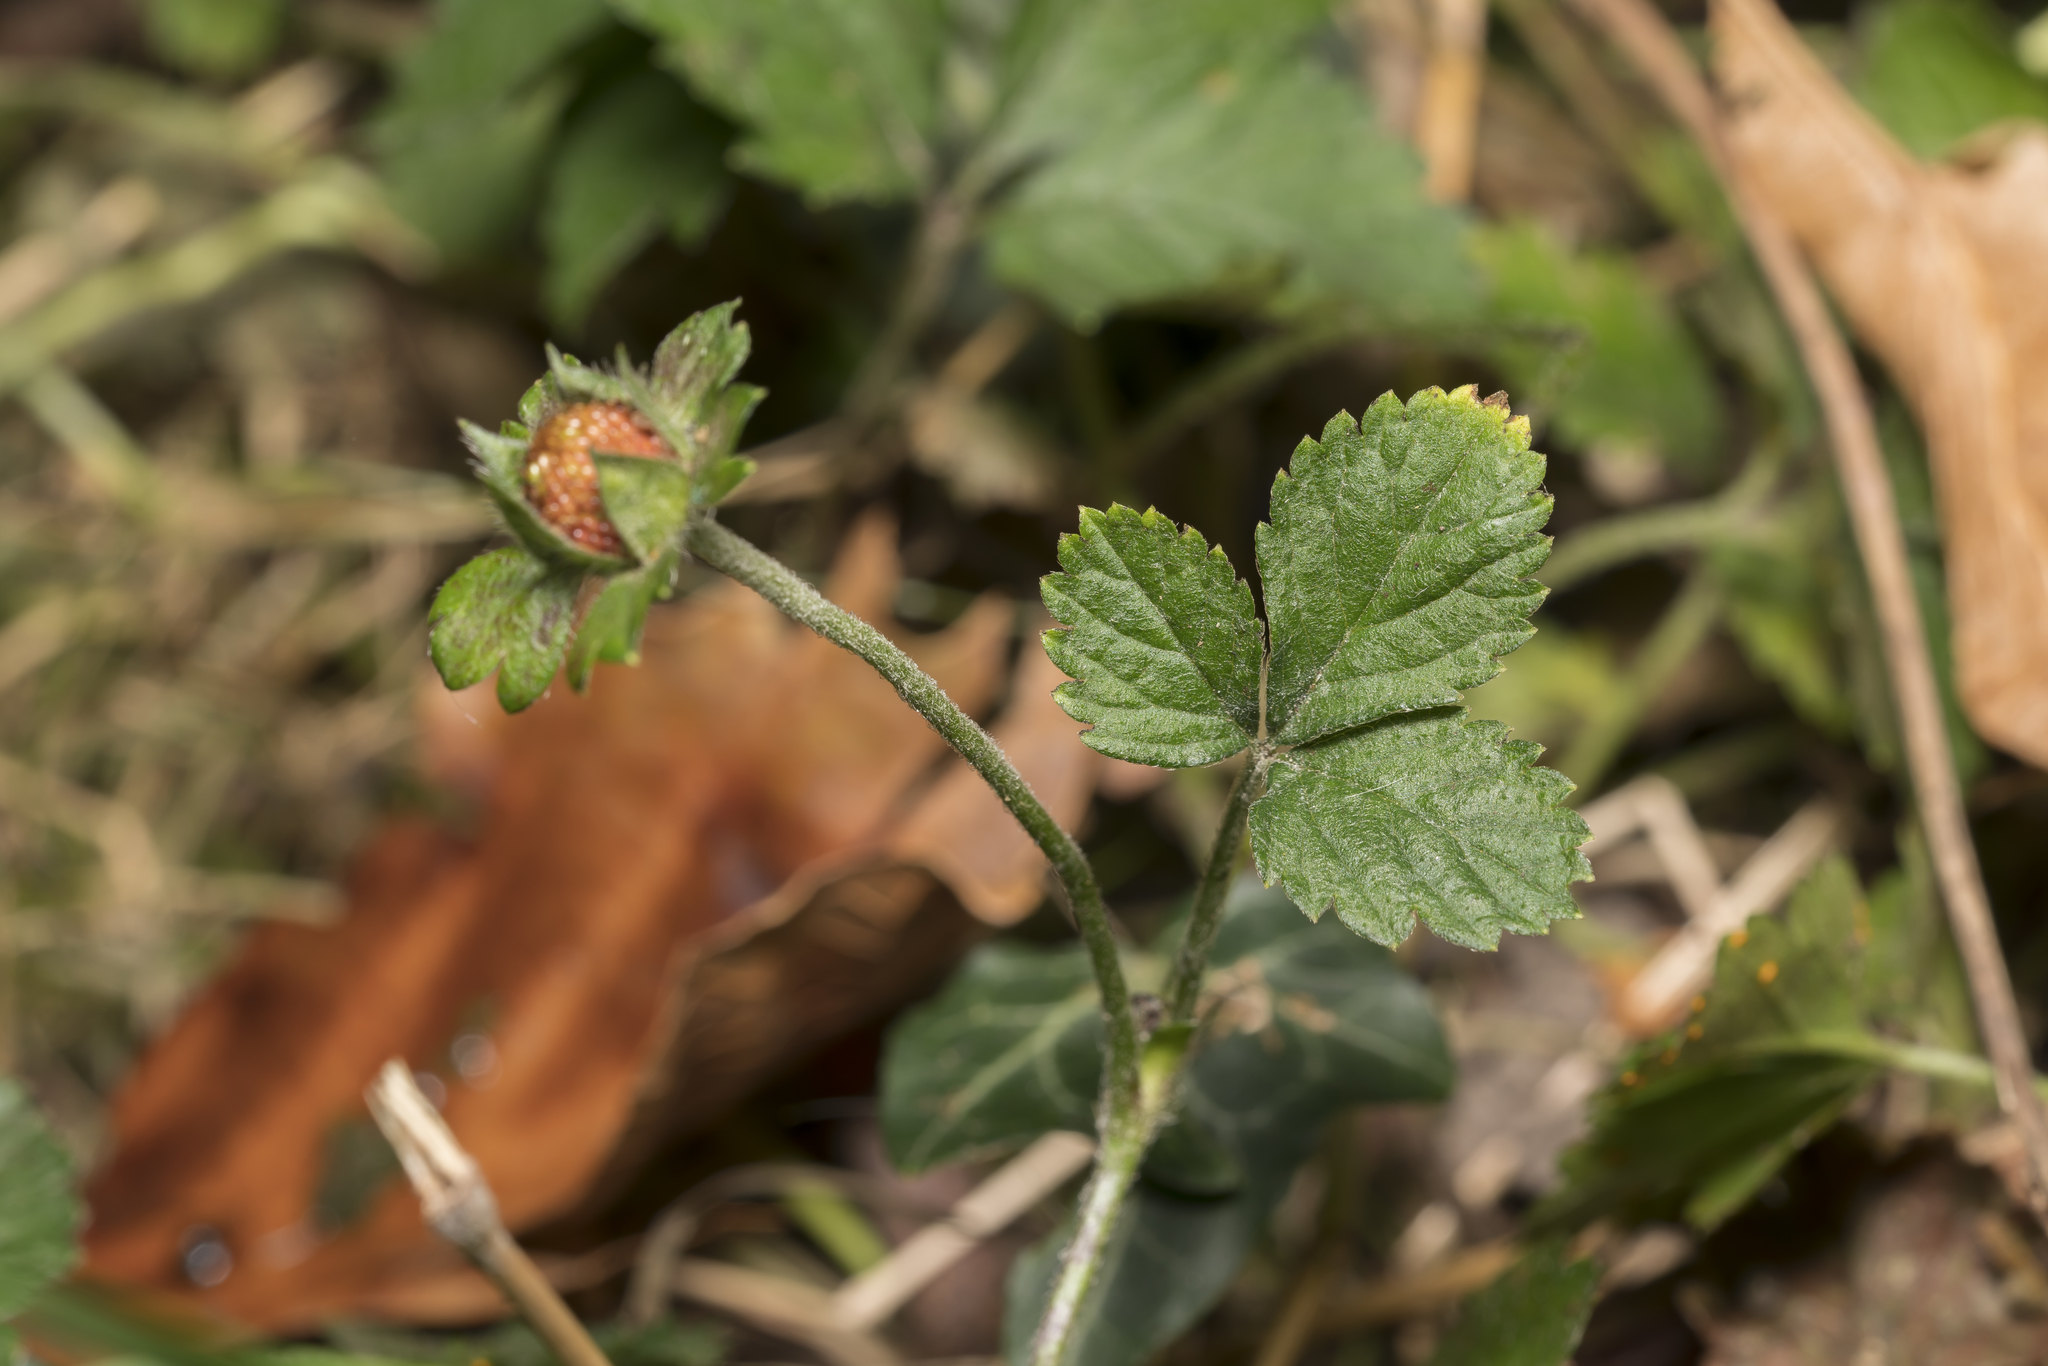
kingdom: Plantae
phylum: Tracheophyta
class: Magnoliopsida
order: Rosales
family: Rosaceae
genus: Potentilla
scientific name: Potentilla indica
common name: Yellow-flowered strawberry
